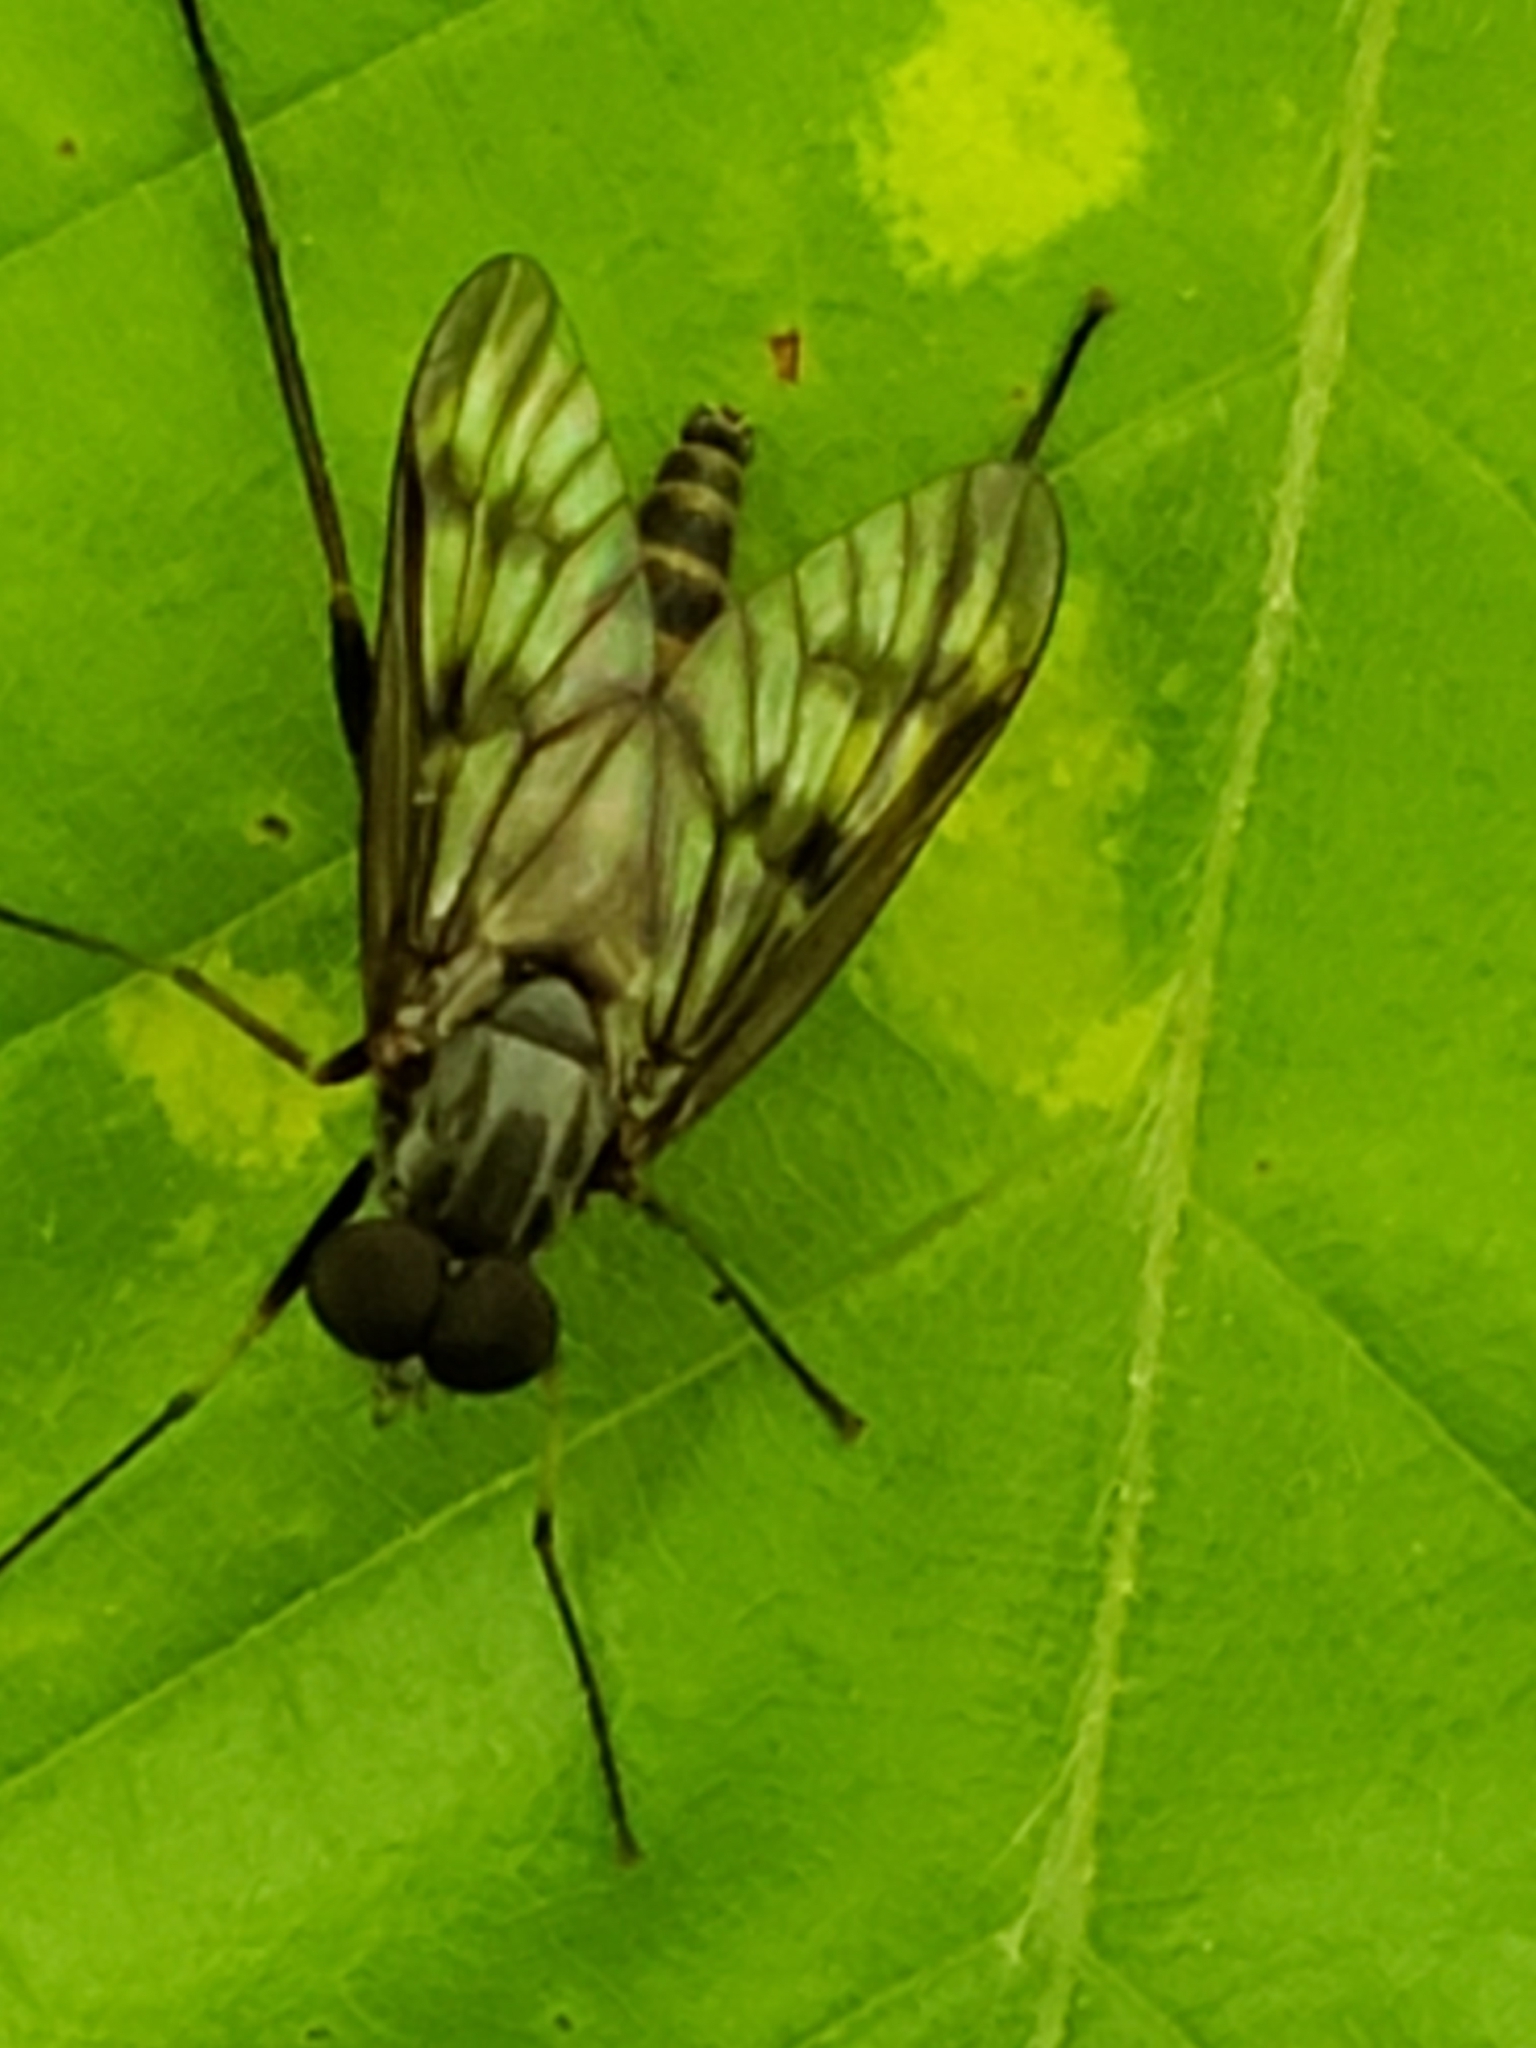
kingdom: Animalia
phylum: Arthropoda
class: Insecta
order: Diptera
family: Rhagionidae
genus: Rhagio
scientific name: Rhagio mystaceus
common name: Common snipe fly
